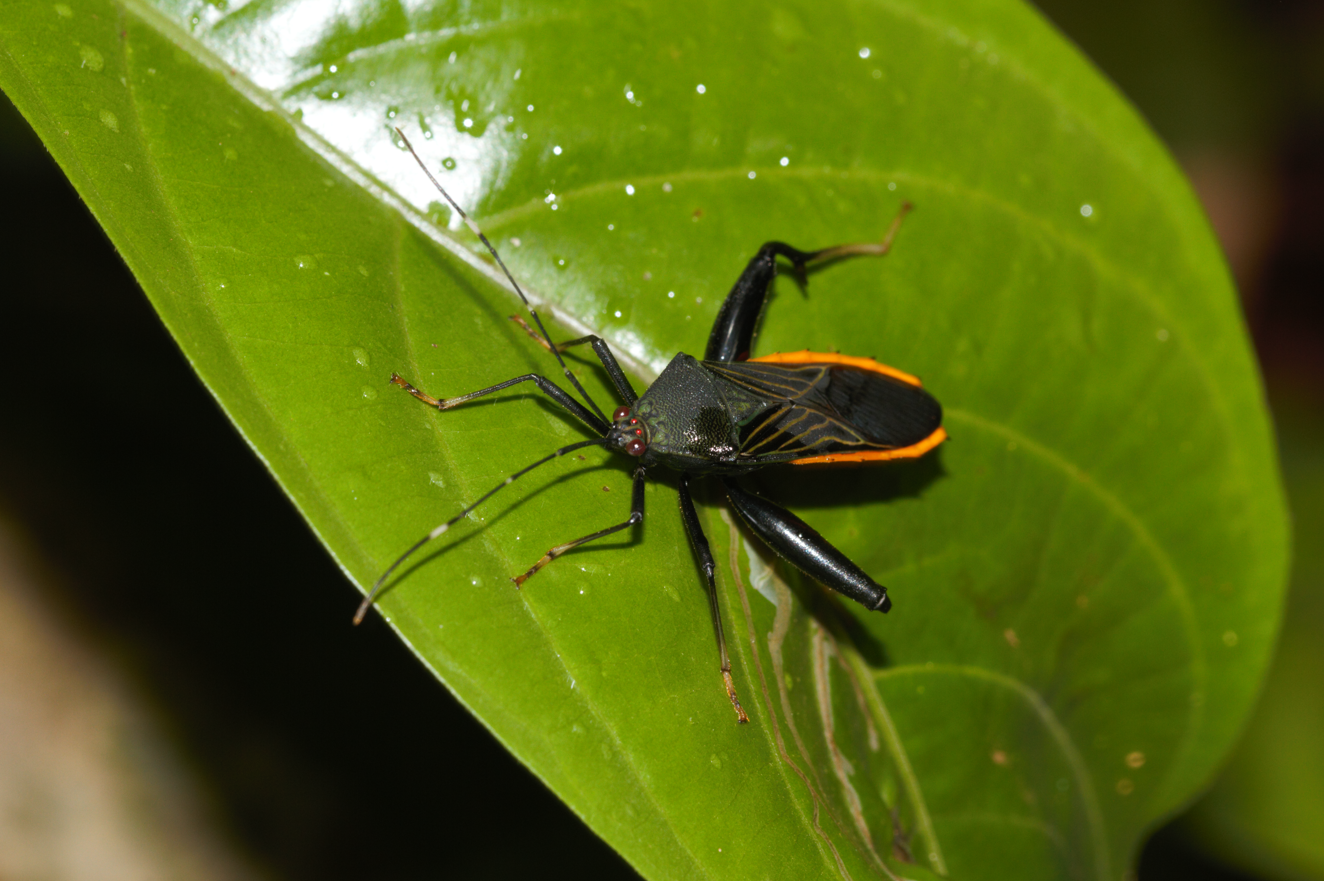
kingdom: Animalia
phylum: Arthropoda
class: Insecta
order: Hemiptera
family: Coreidae
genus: Nematopus
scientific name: Nematopus indus
